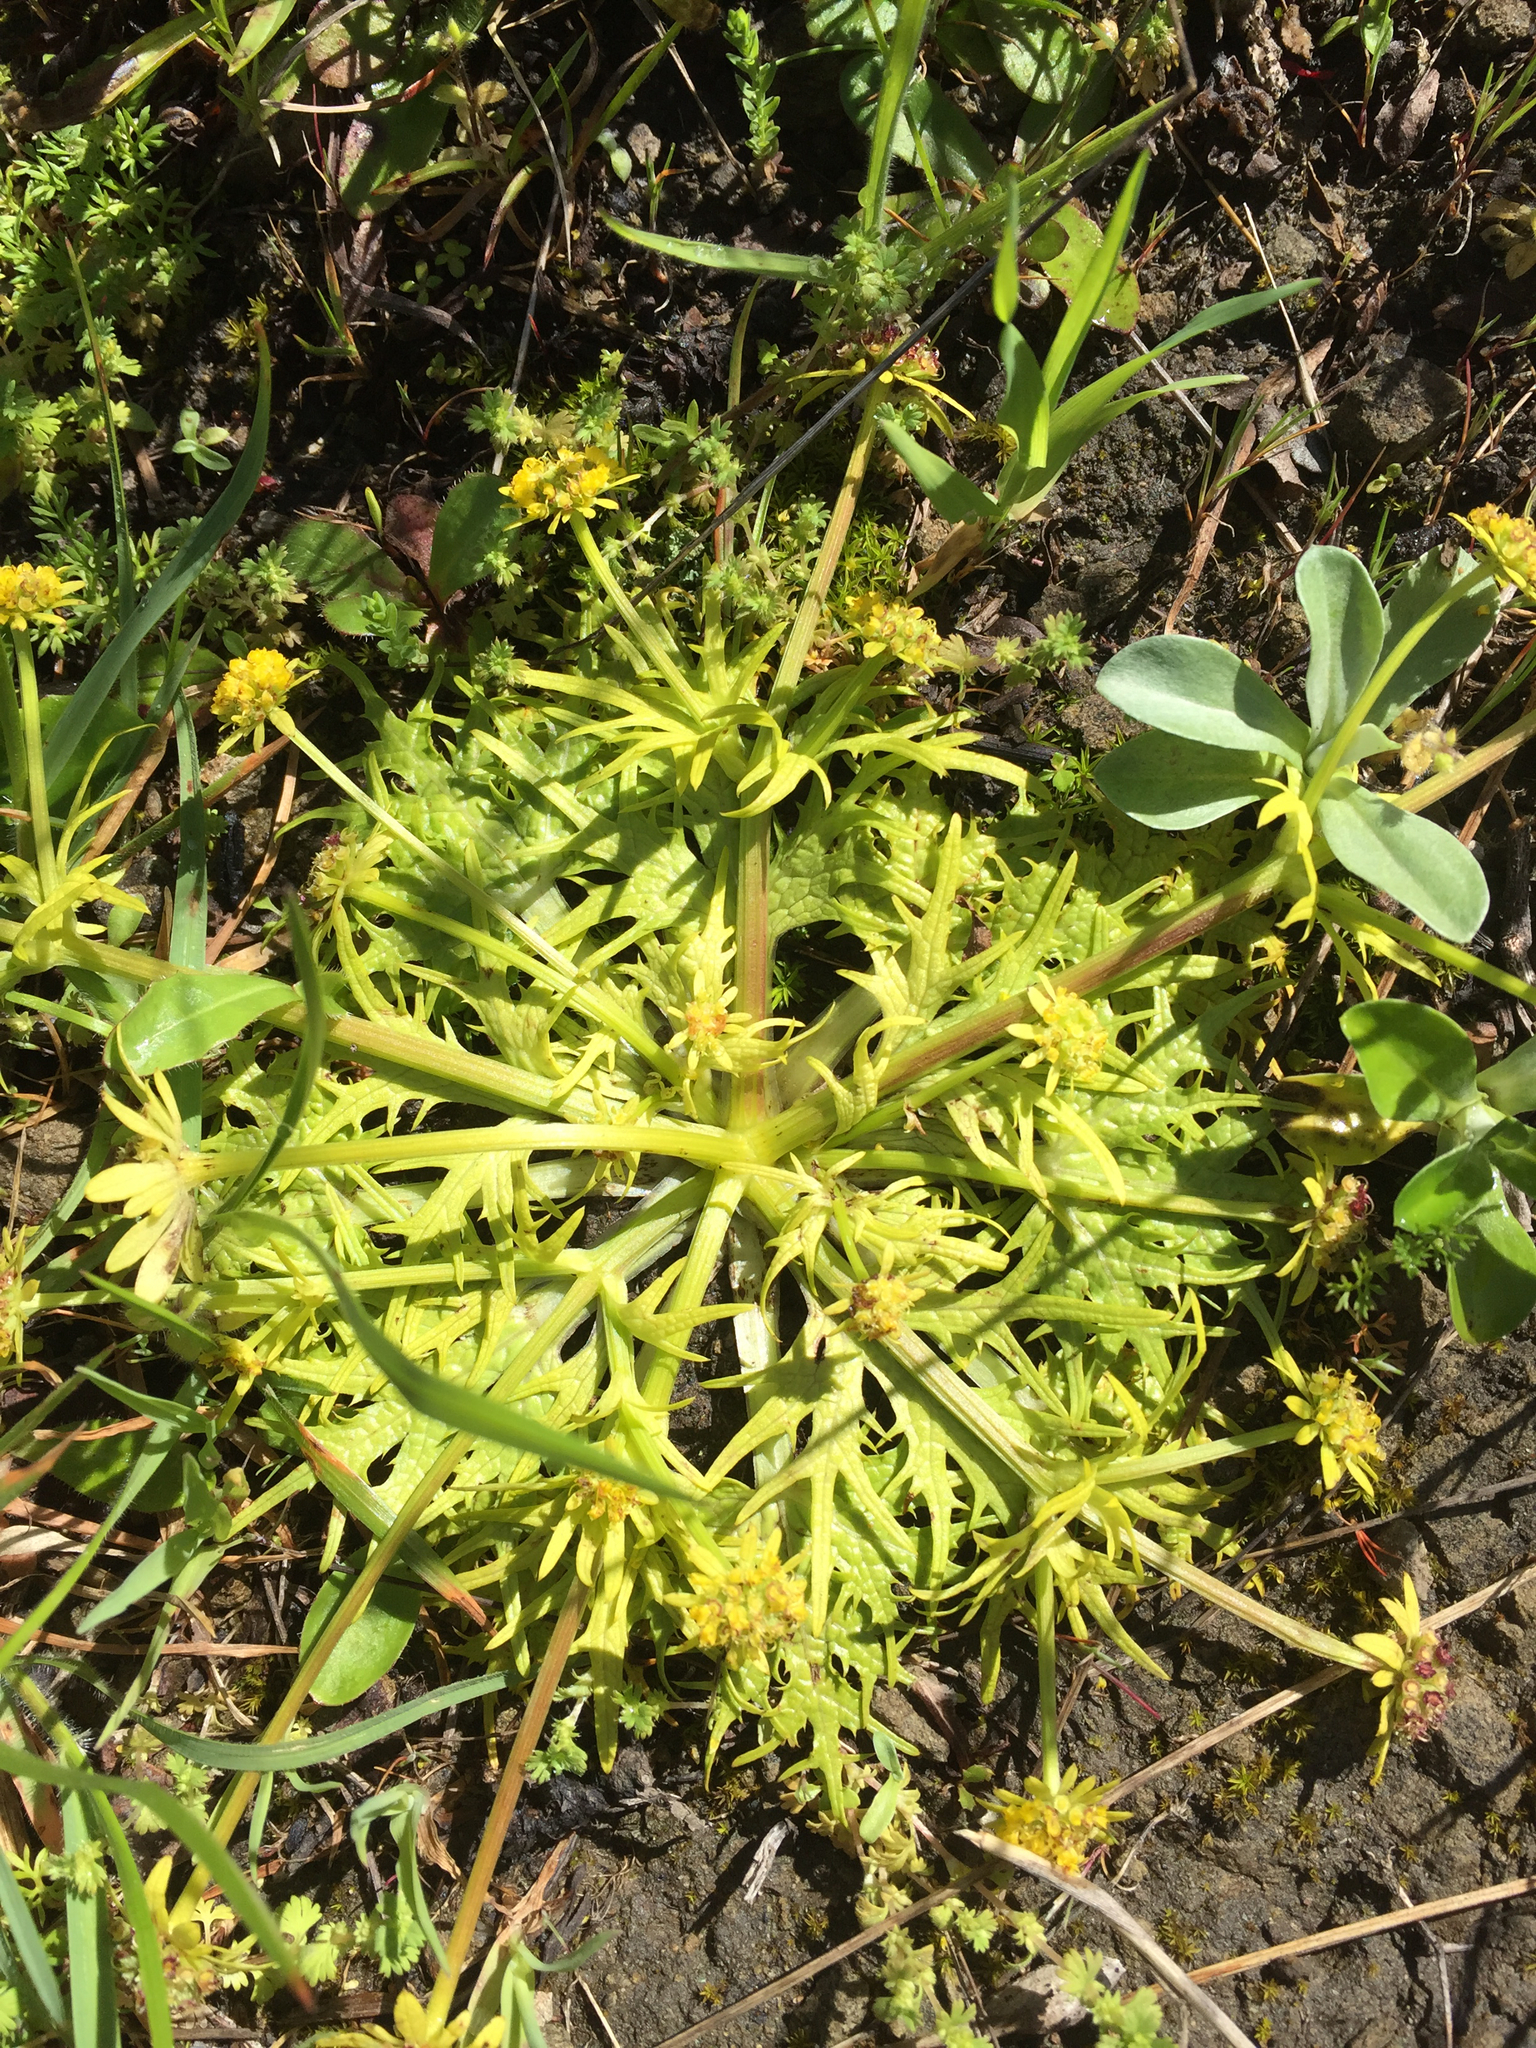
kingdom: Plantae
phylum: Tracheophyta
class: Magnoliopsida
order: Apiales
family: Apiaceae
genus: Sanicula
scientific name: Sanicula arctopoides
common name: Footsteps-of-spring
